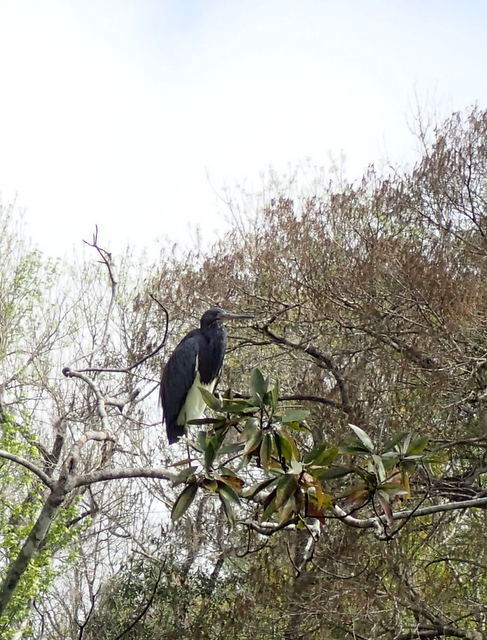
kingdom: Animalia
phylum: Chordata
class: Aves
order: Pelecaniformes
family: Ardeidae
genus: Egretta
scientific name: Egretta tricolor
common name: Tricolored heron
